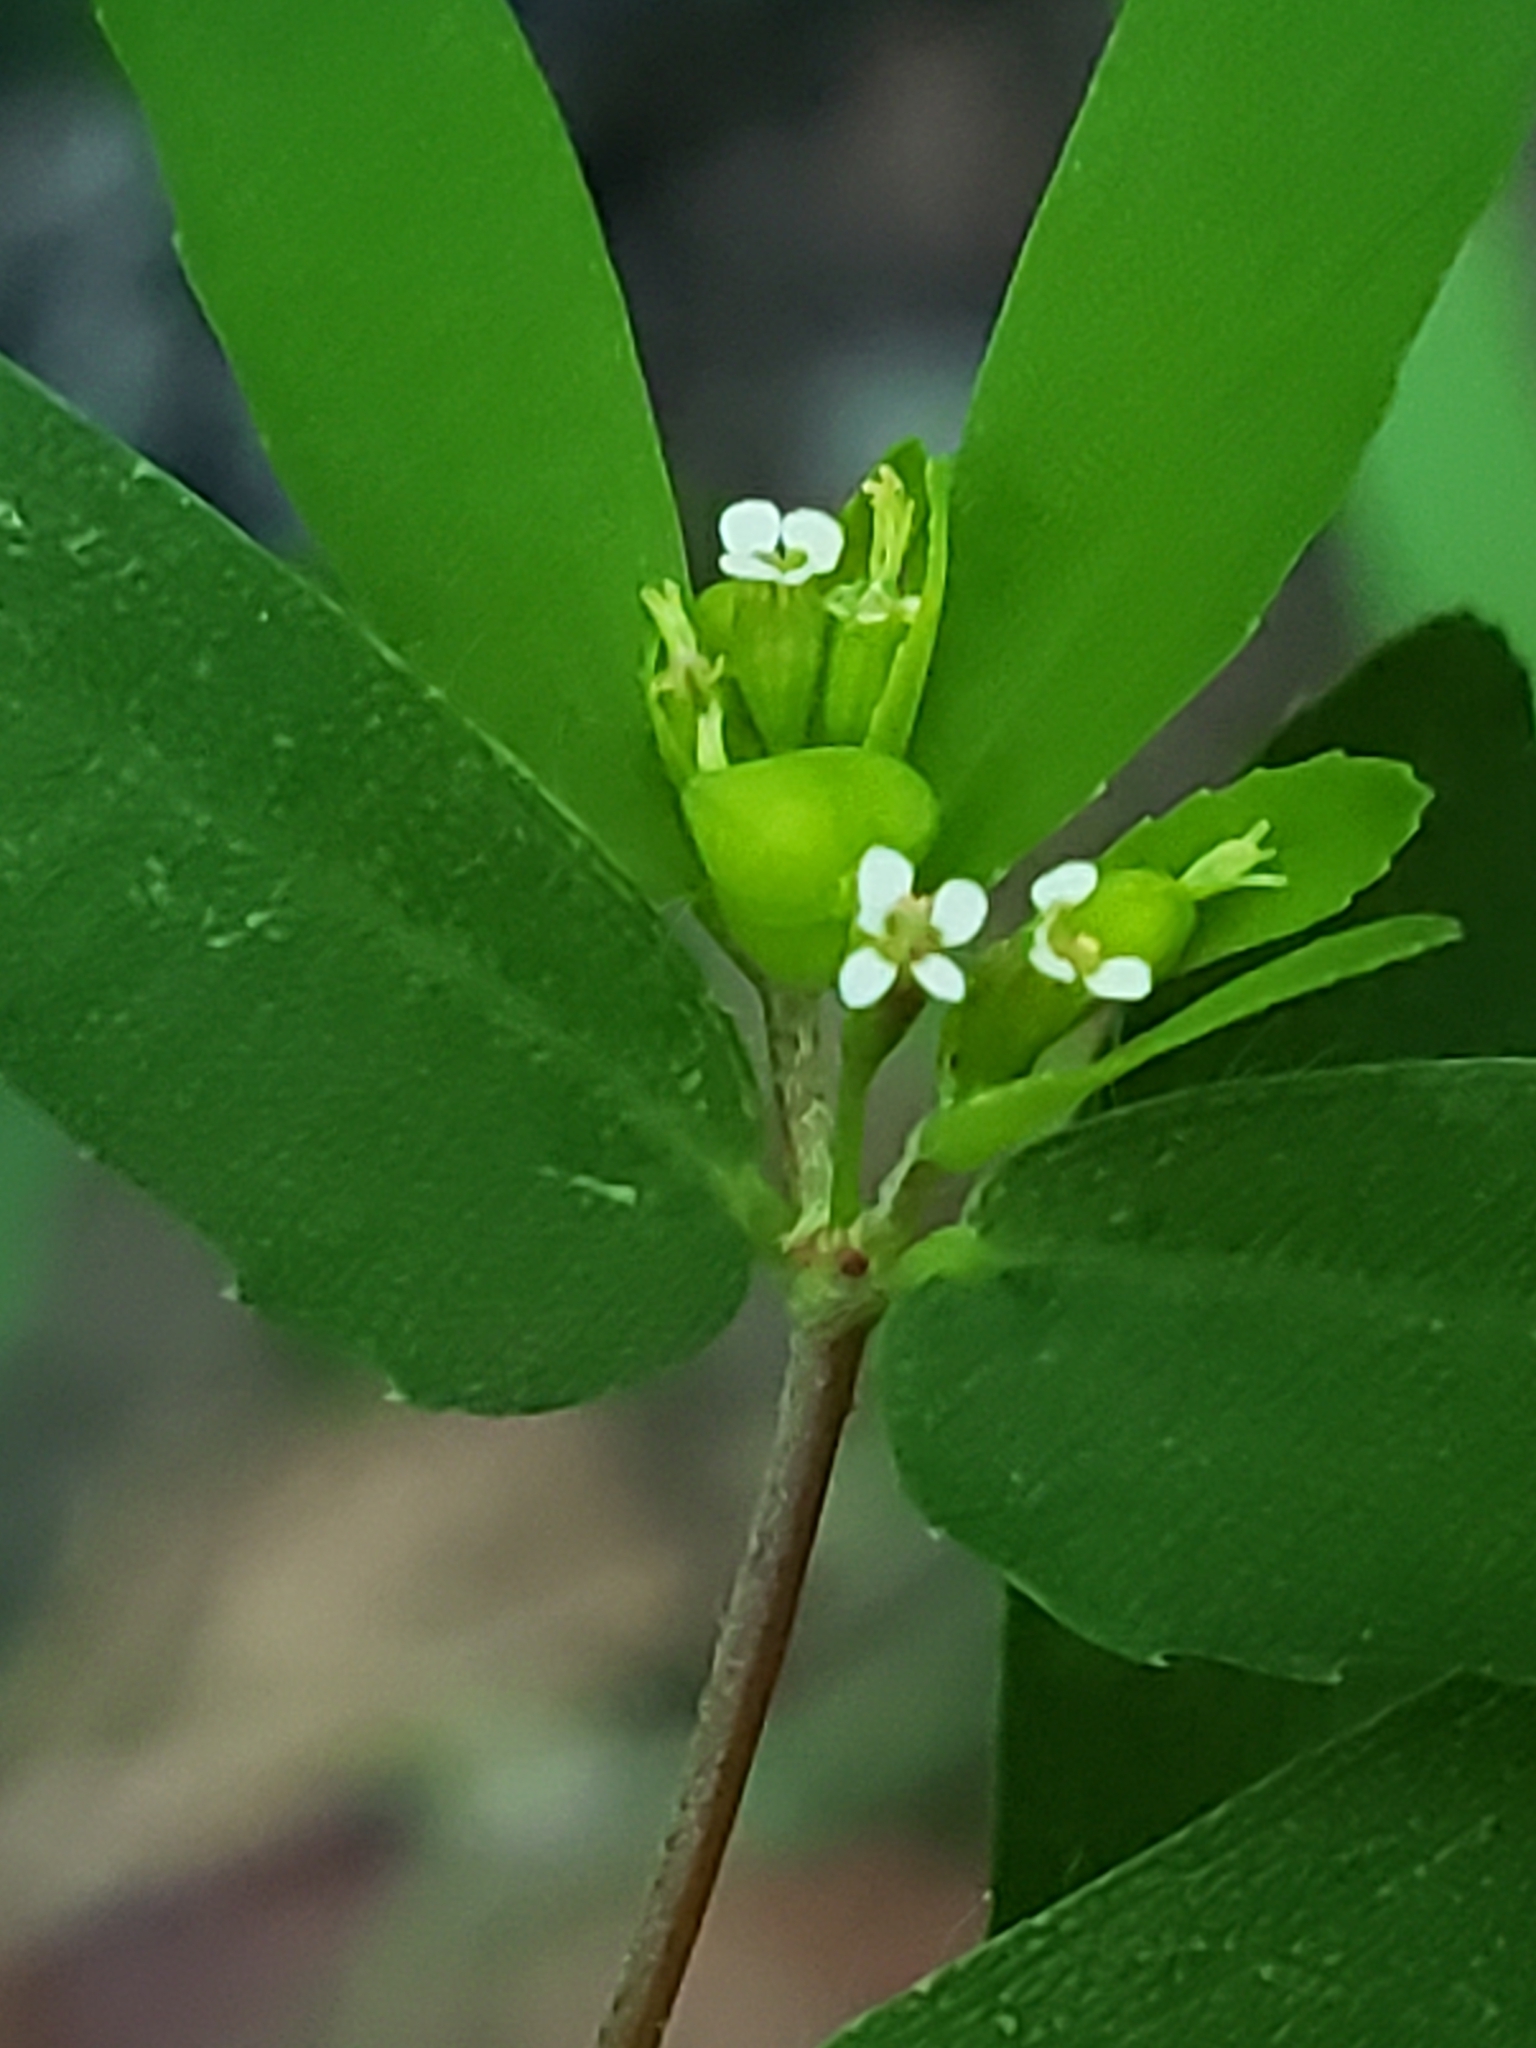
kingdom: Plantae
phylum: Tracheophyta
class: Magnoliopsida
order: Malpighiales
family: Euphorbiaceae
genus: Euphorbia
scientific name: Euphorbia nutans
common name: Eyebane
